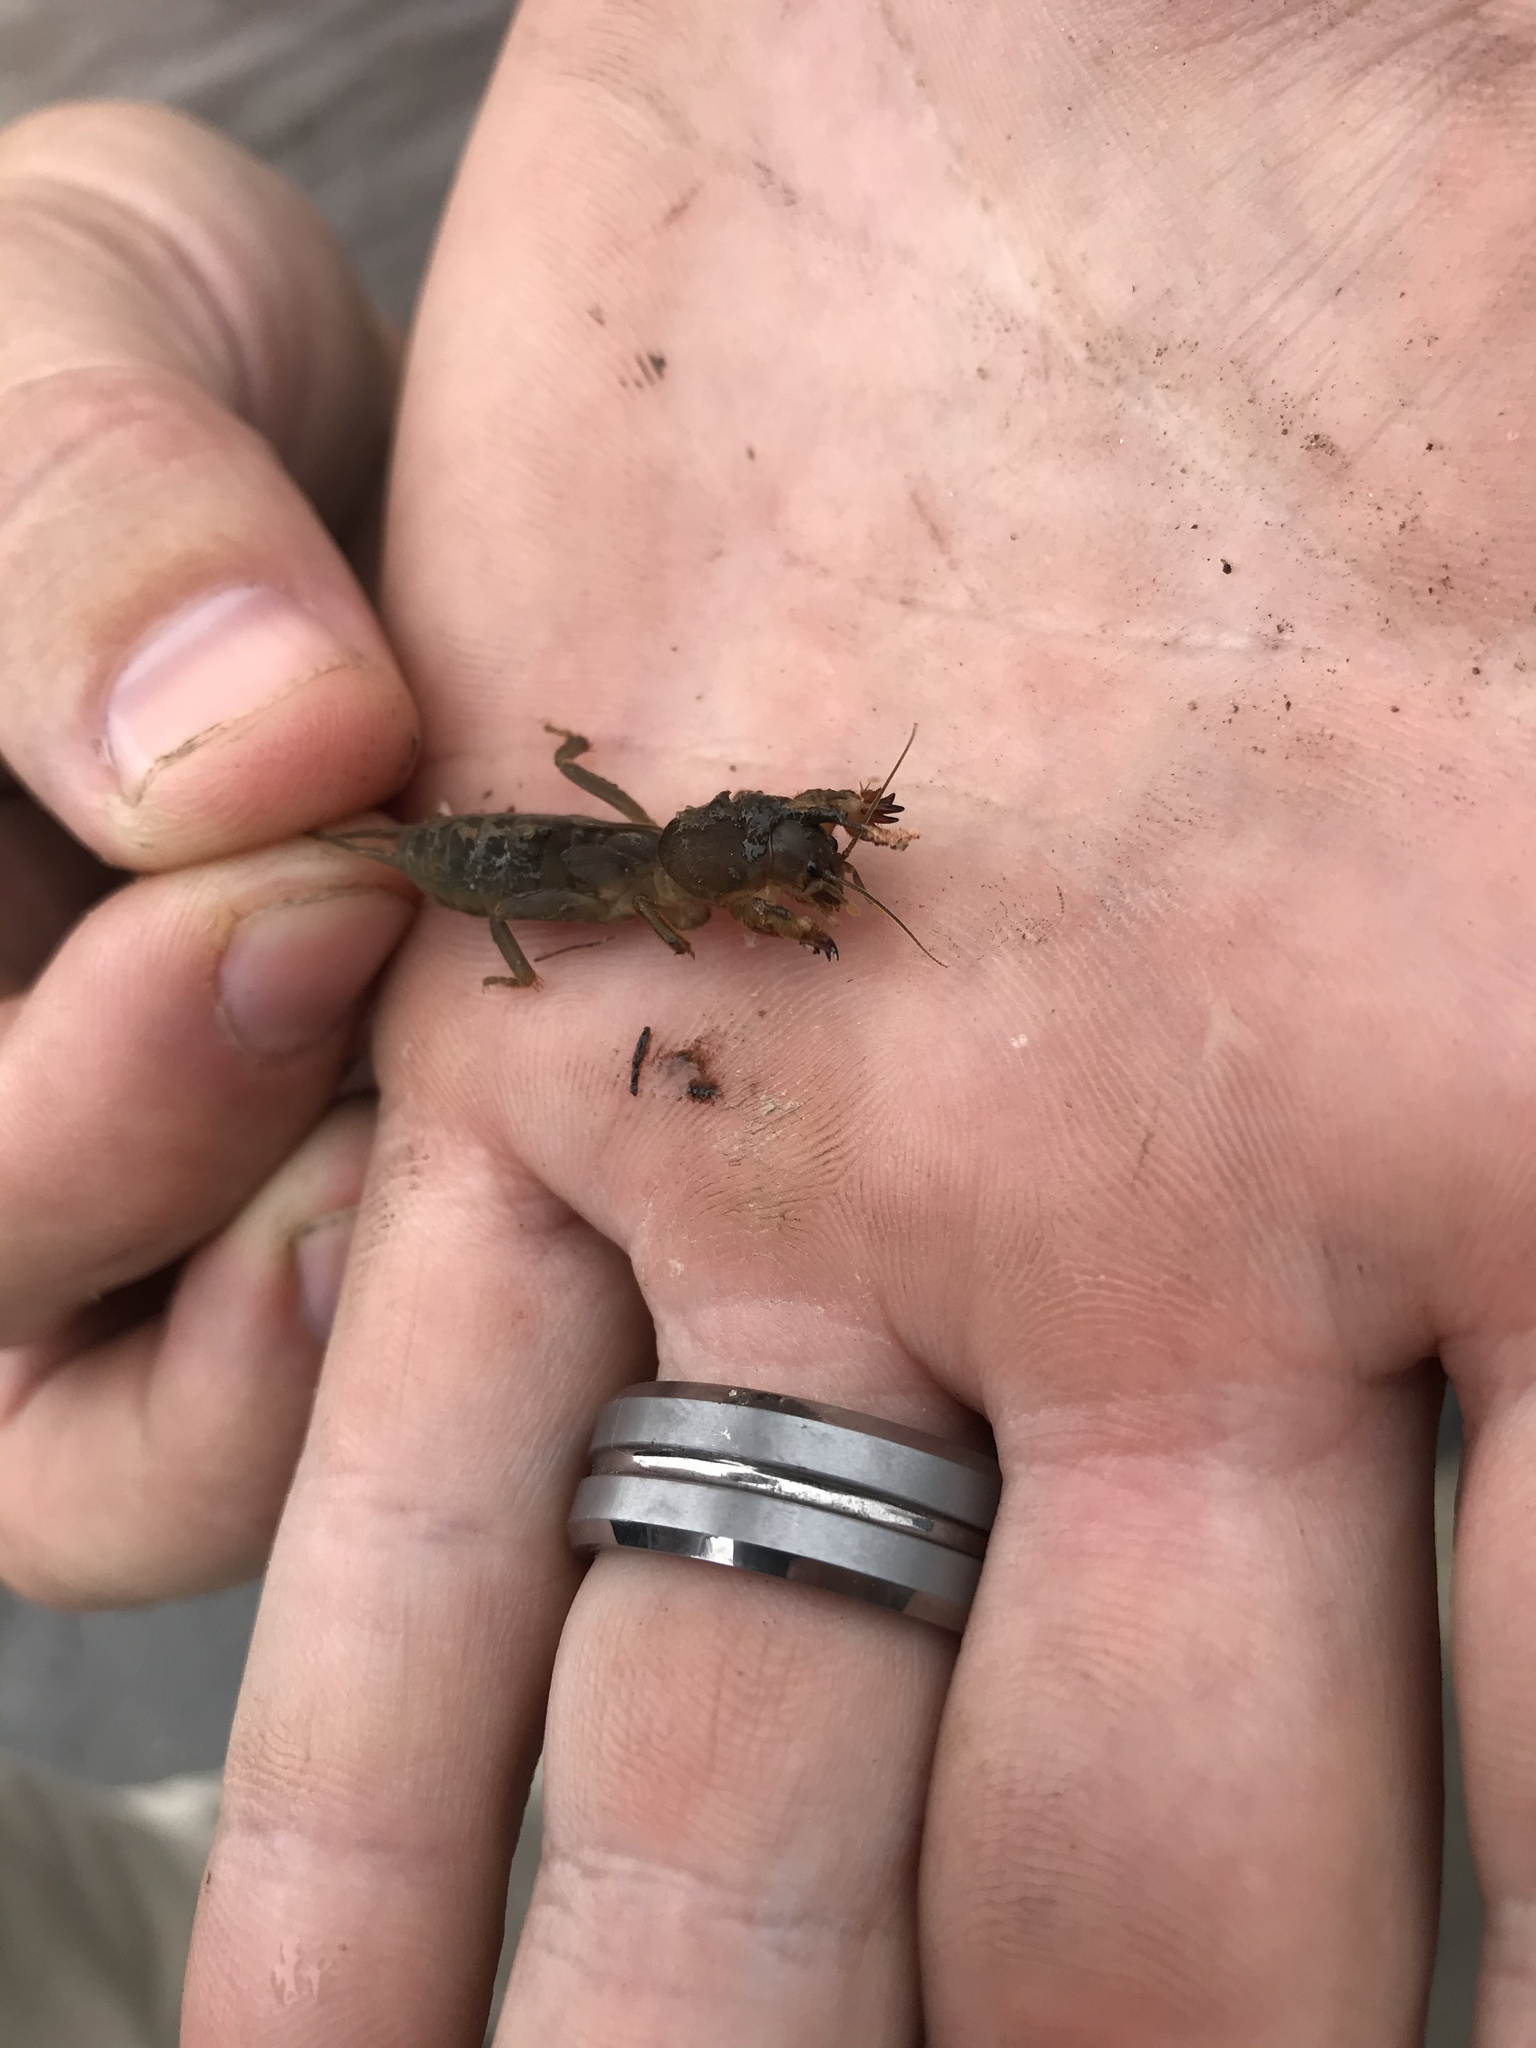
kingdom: Animalia
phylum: Arthropoda
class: Insecta
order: Orthoptera
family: Gryllotalpidae
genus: Neocurtilla
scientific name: Neocurtilla hexadactyla
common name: Northern mole cricket
